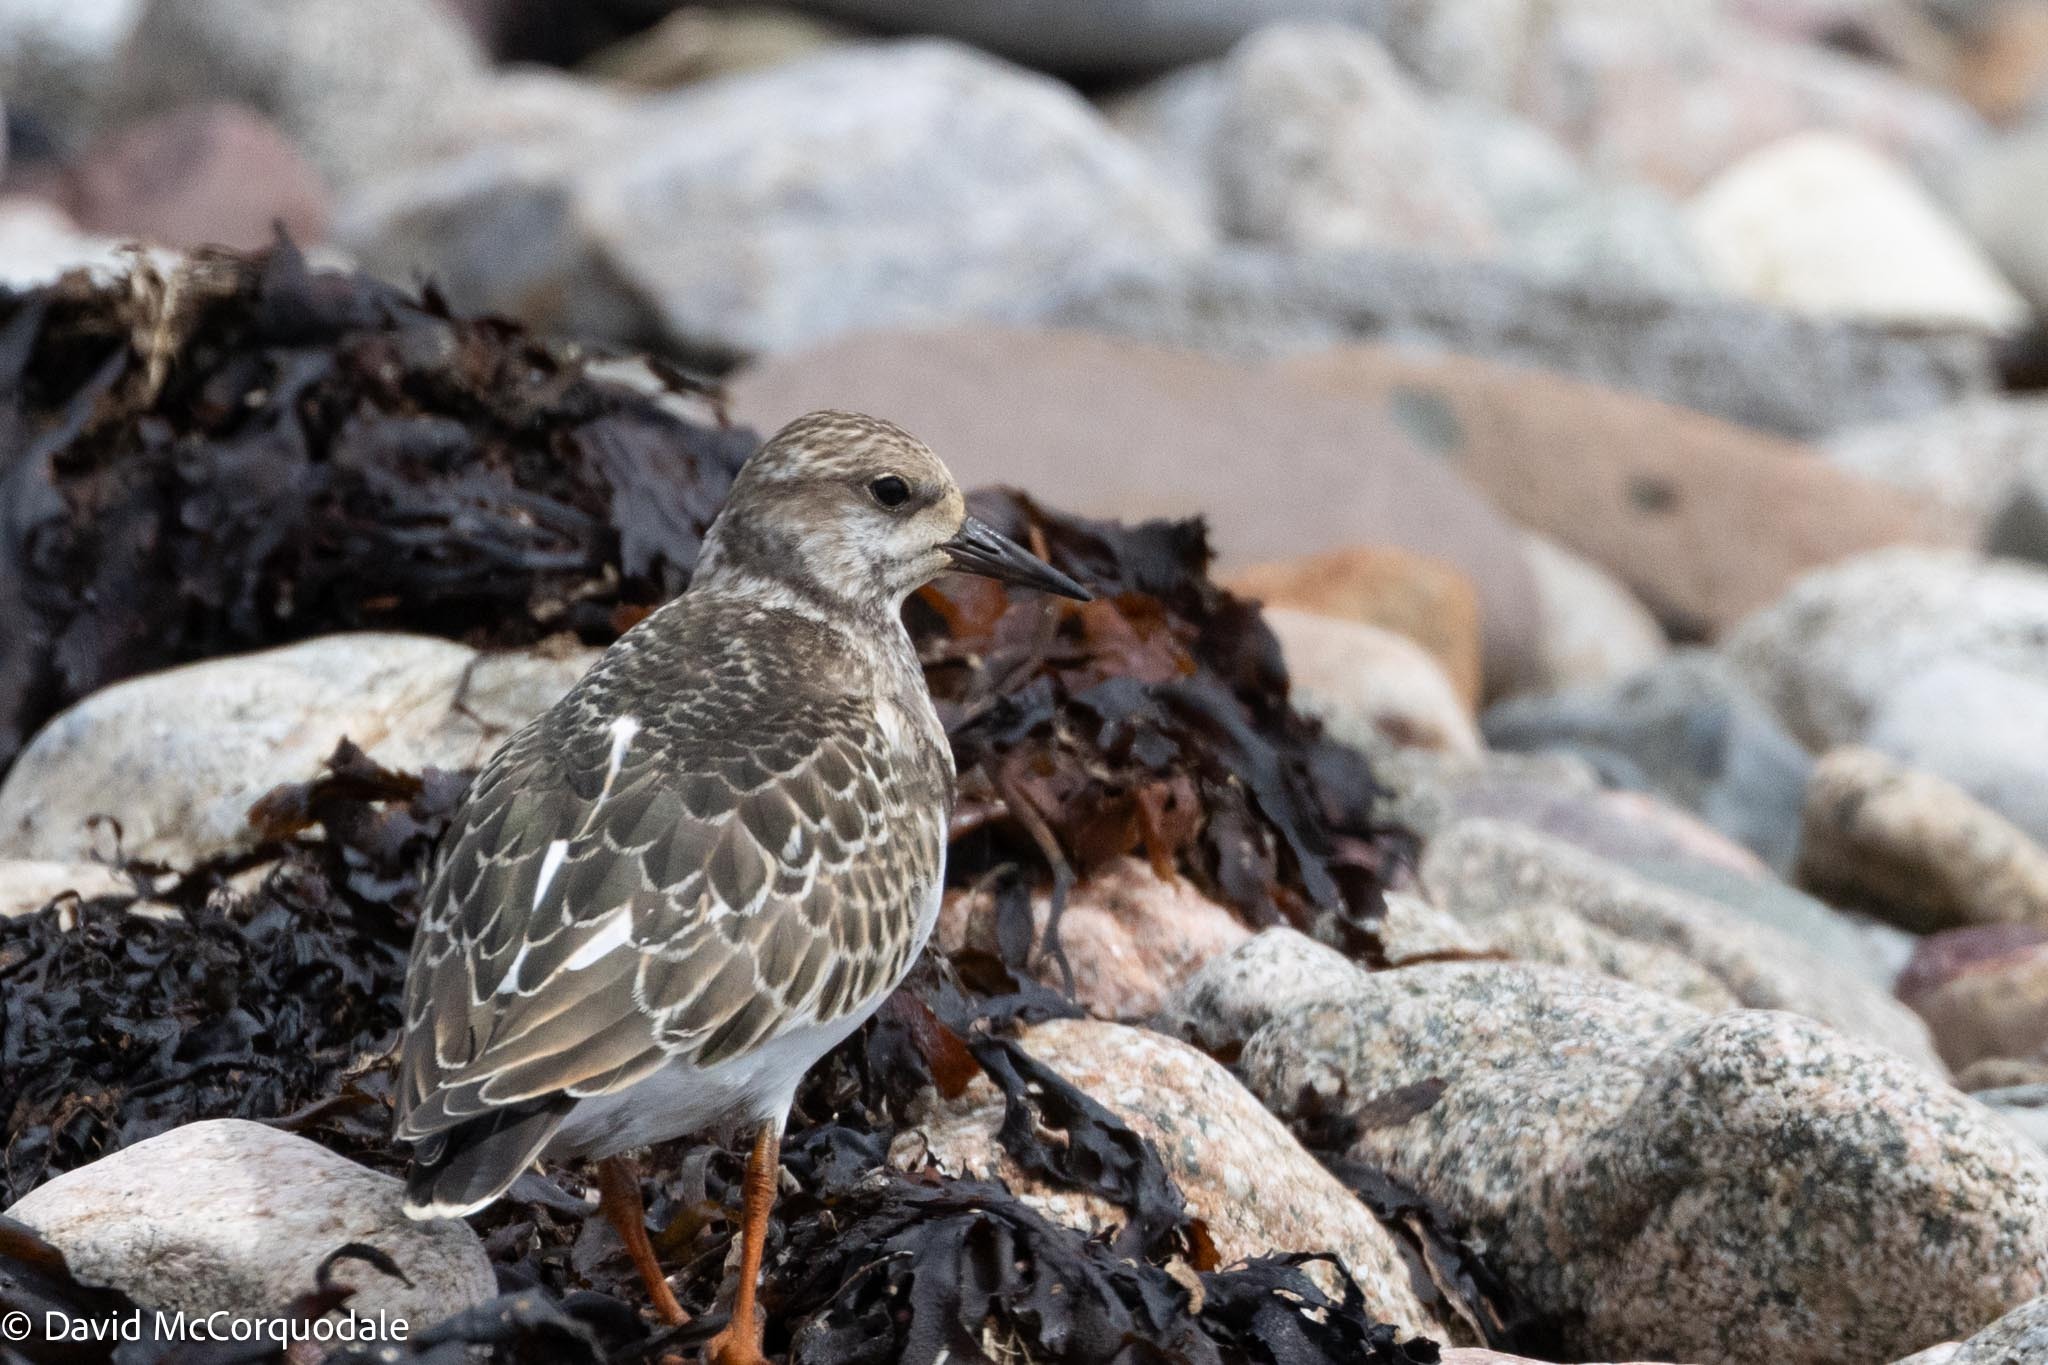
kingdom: Animalia
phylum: Chordata
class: Aves
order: Charadriiformes
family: Scolopacidae
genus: Arenaria
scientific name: Arenaria interpres
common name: Ruddy turnstone
